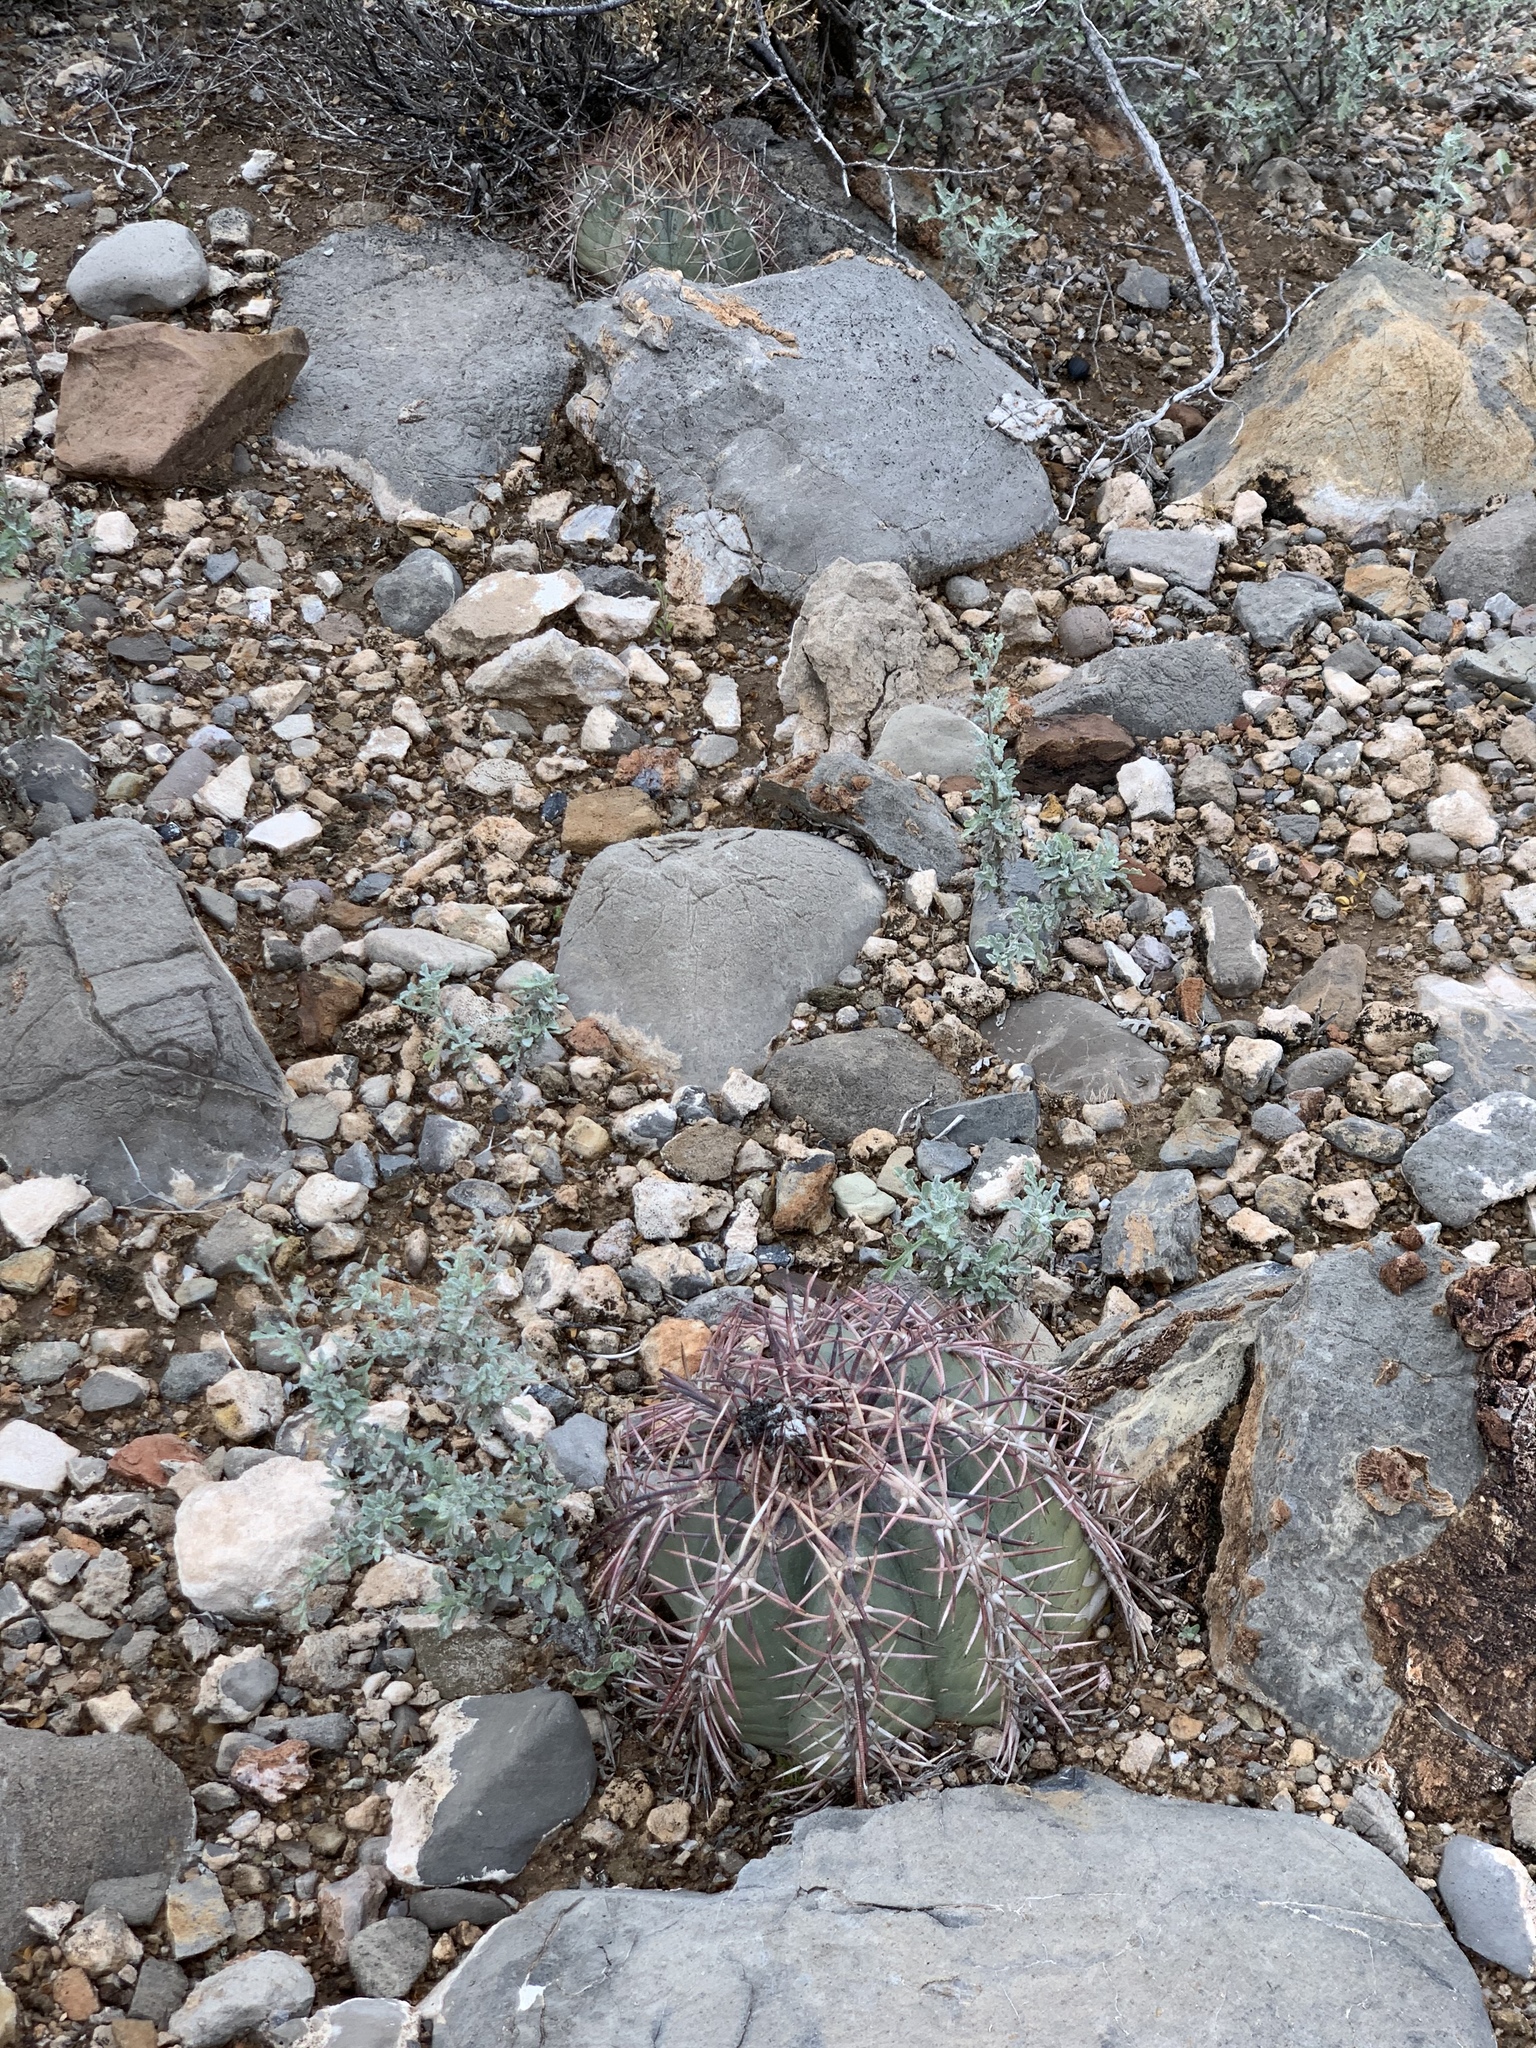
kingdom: Plantae
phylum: Tracheophyta
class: Magnoliopsida
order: Caryophyllales
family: Cactaceae
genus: Echinocactus
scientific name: Echinocactus horizonthalonius
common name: Devilshead
